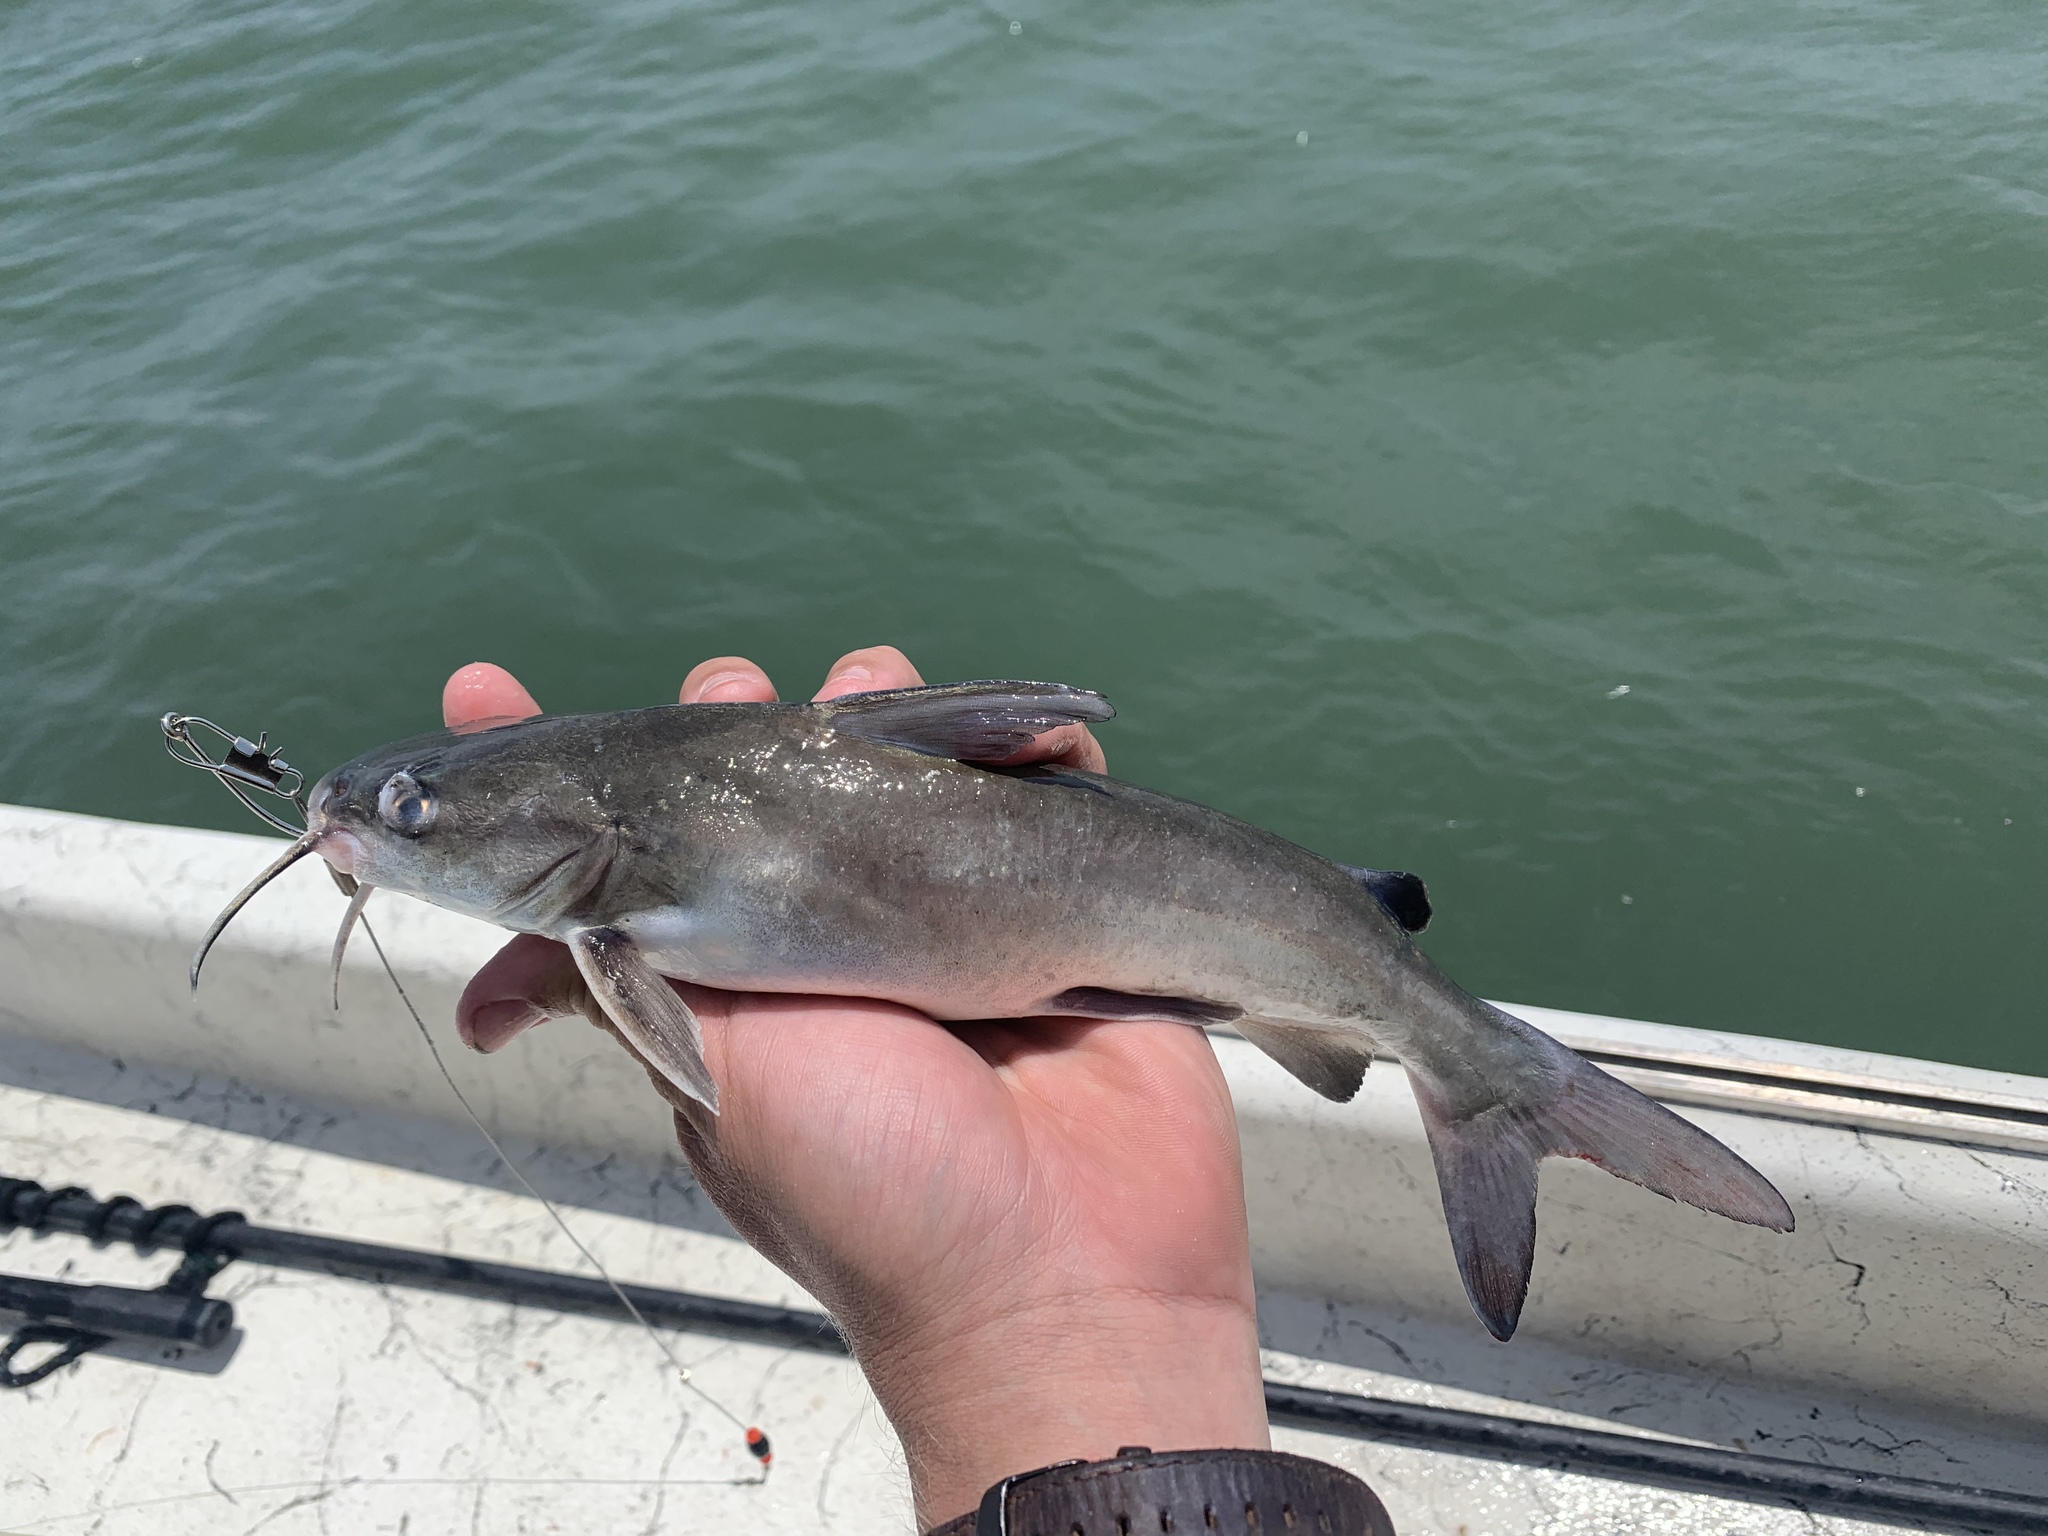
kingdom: Animalia
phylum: Chordata
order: Siluriformes
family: Ariidae
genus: Ariopsis
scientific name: Ariopsis felis
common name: Hardhead catfish
